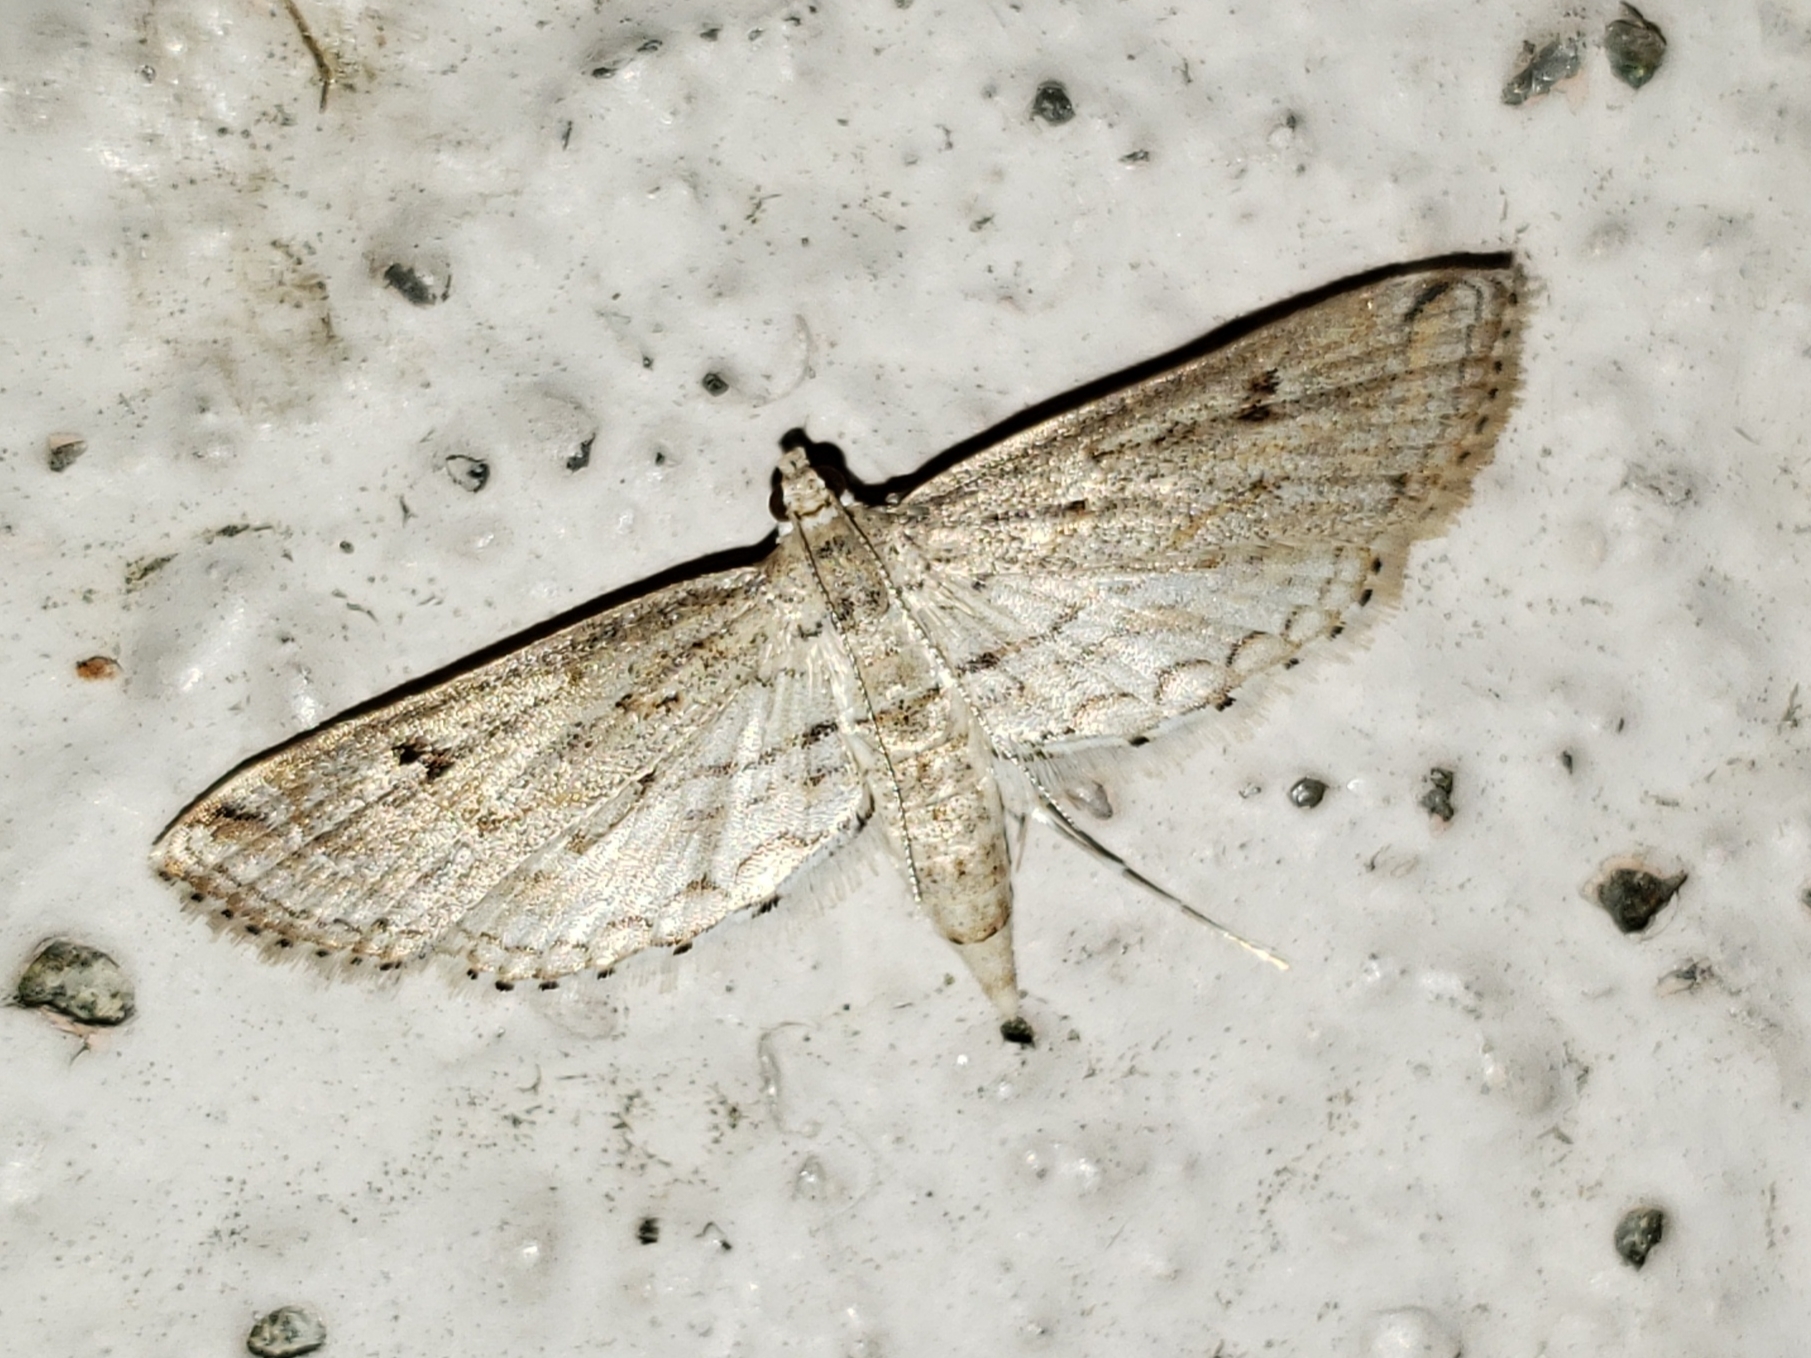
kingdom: Animalia
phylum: Arthropoda
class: Insecta
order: Lepidoptera
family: Crambidae
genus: Parapoynx
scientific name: Parapoynx allionealis
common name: Bladderwort casemaker
